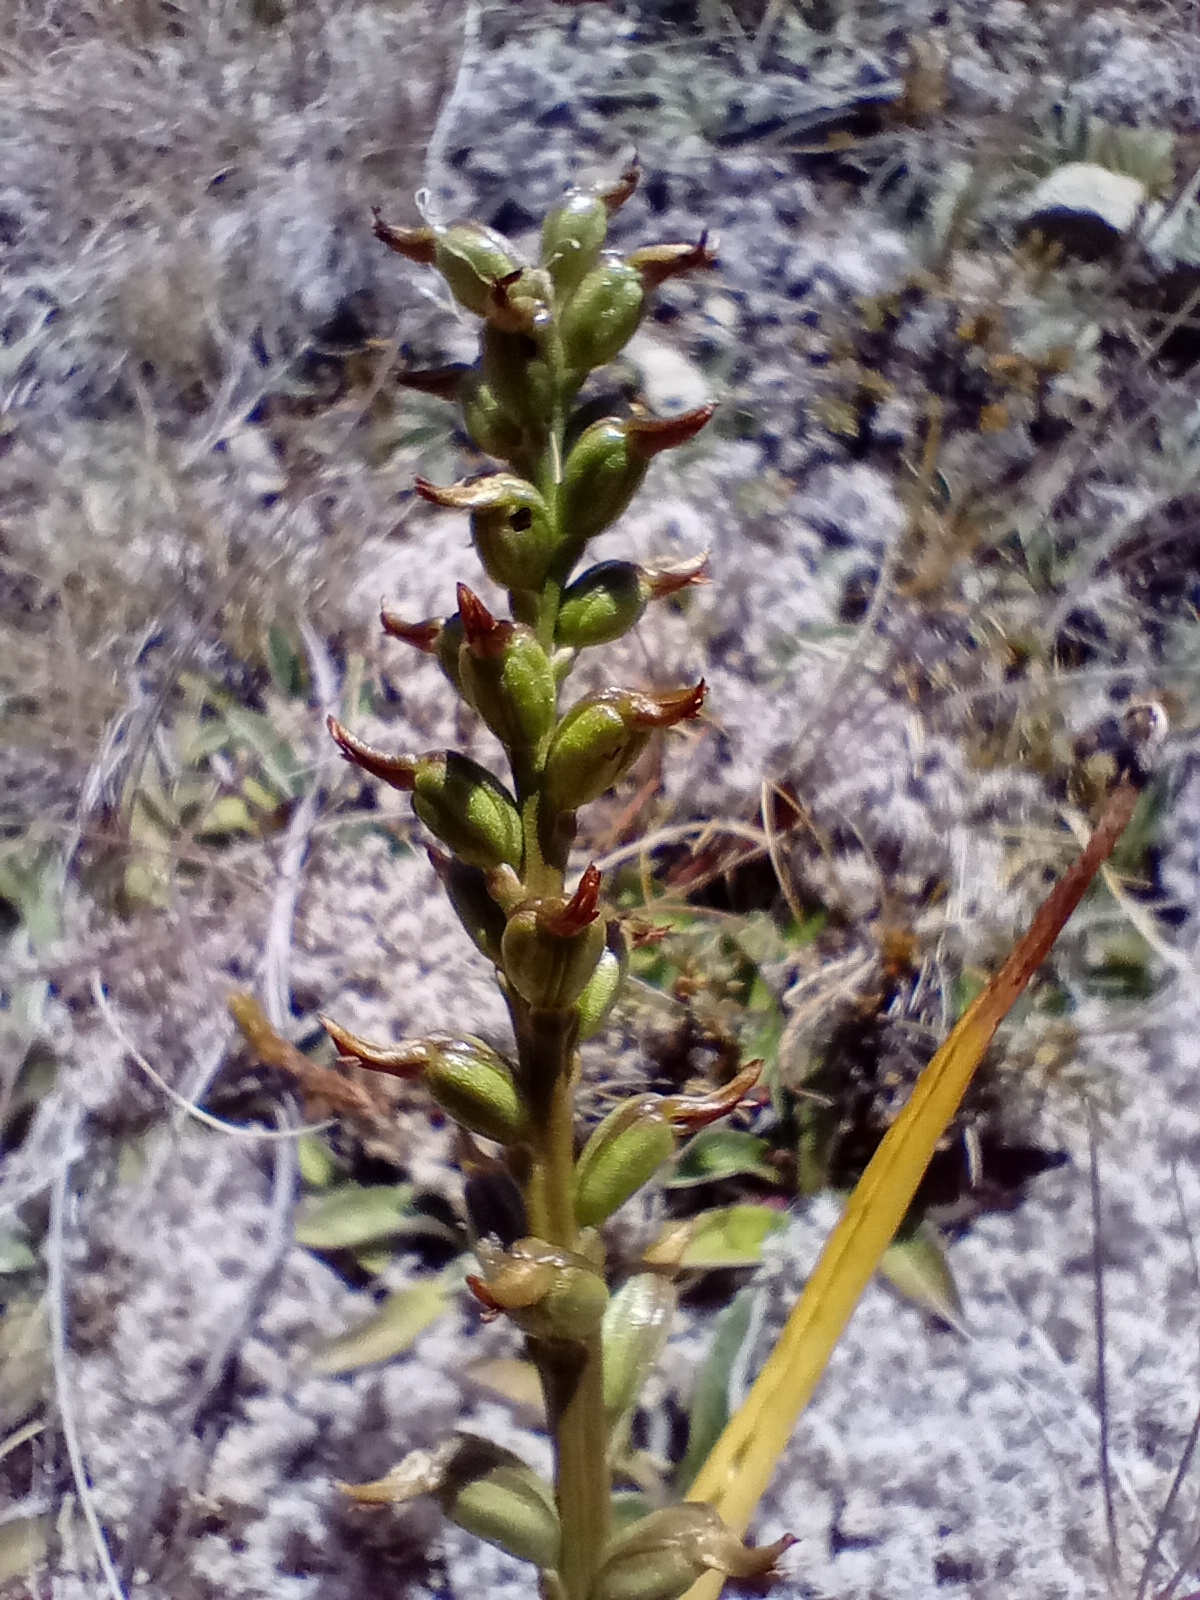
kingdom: Plantae
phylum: Tracheophyta
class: Liliopsida
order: Asparagales
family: Orchidaceae
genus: Prasophyllum
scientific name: Prasophyllum colensoi
